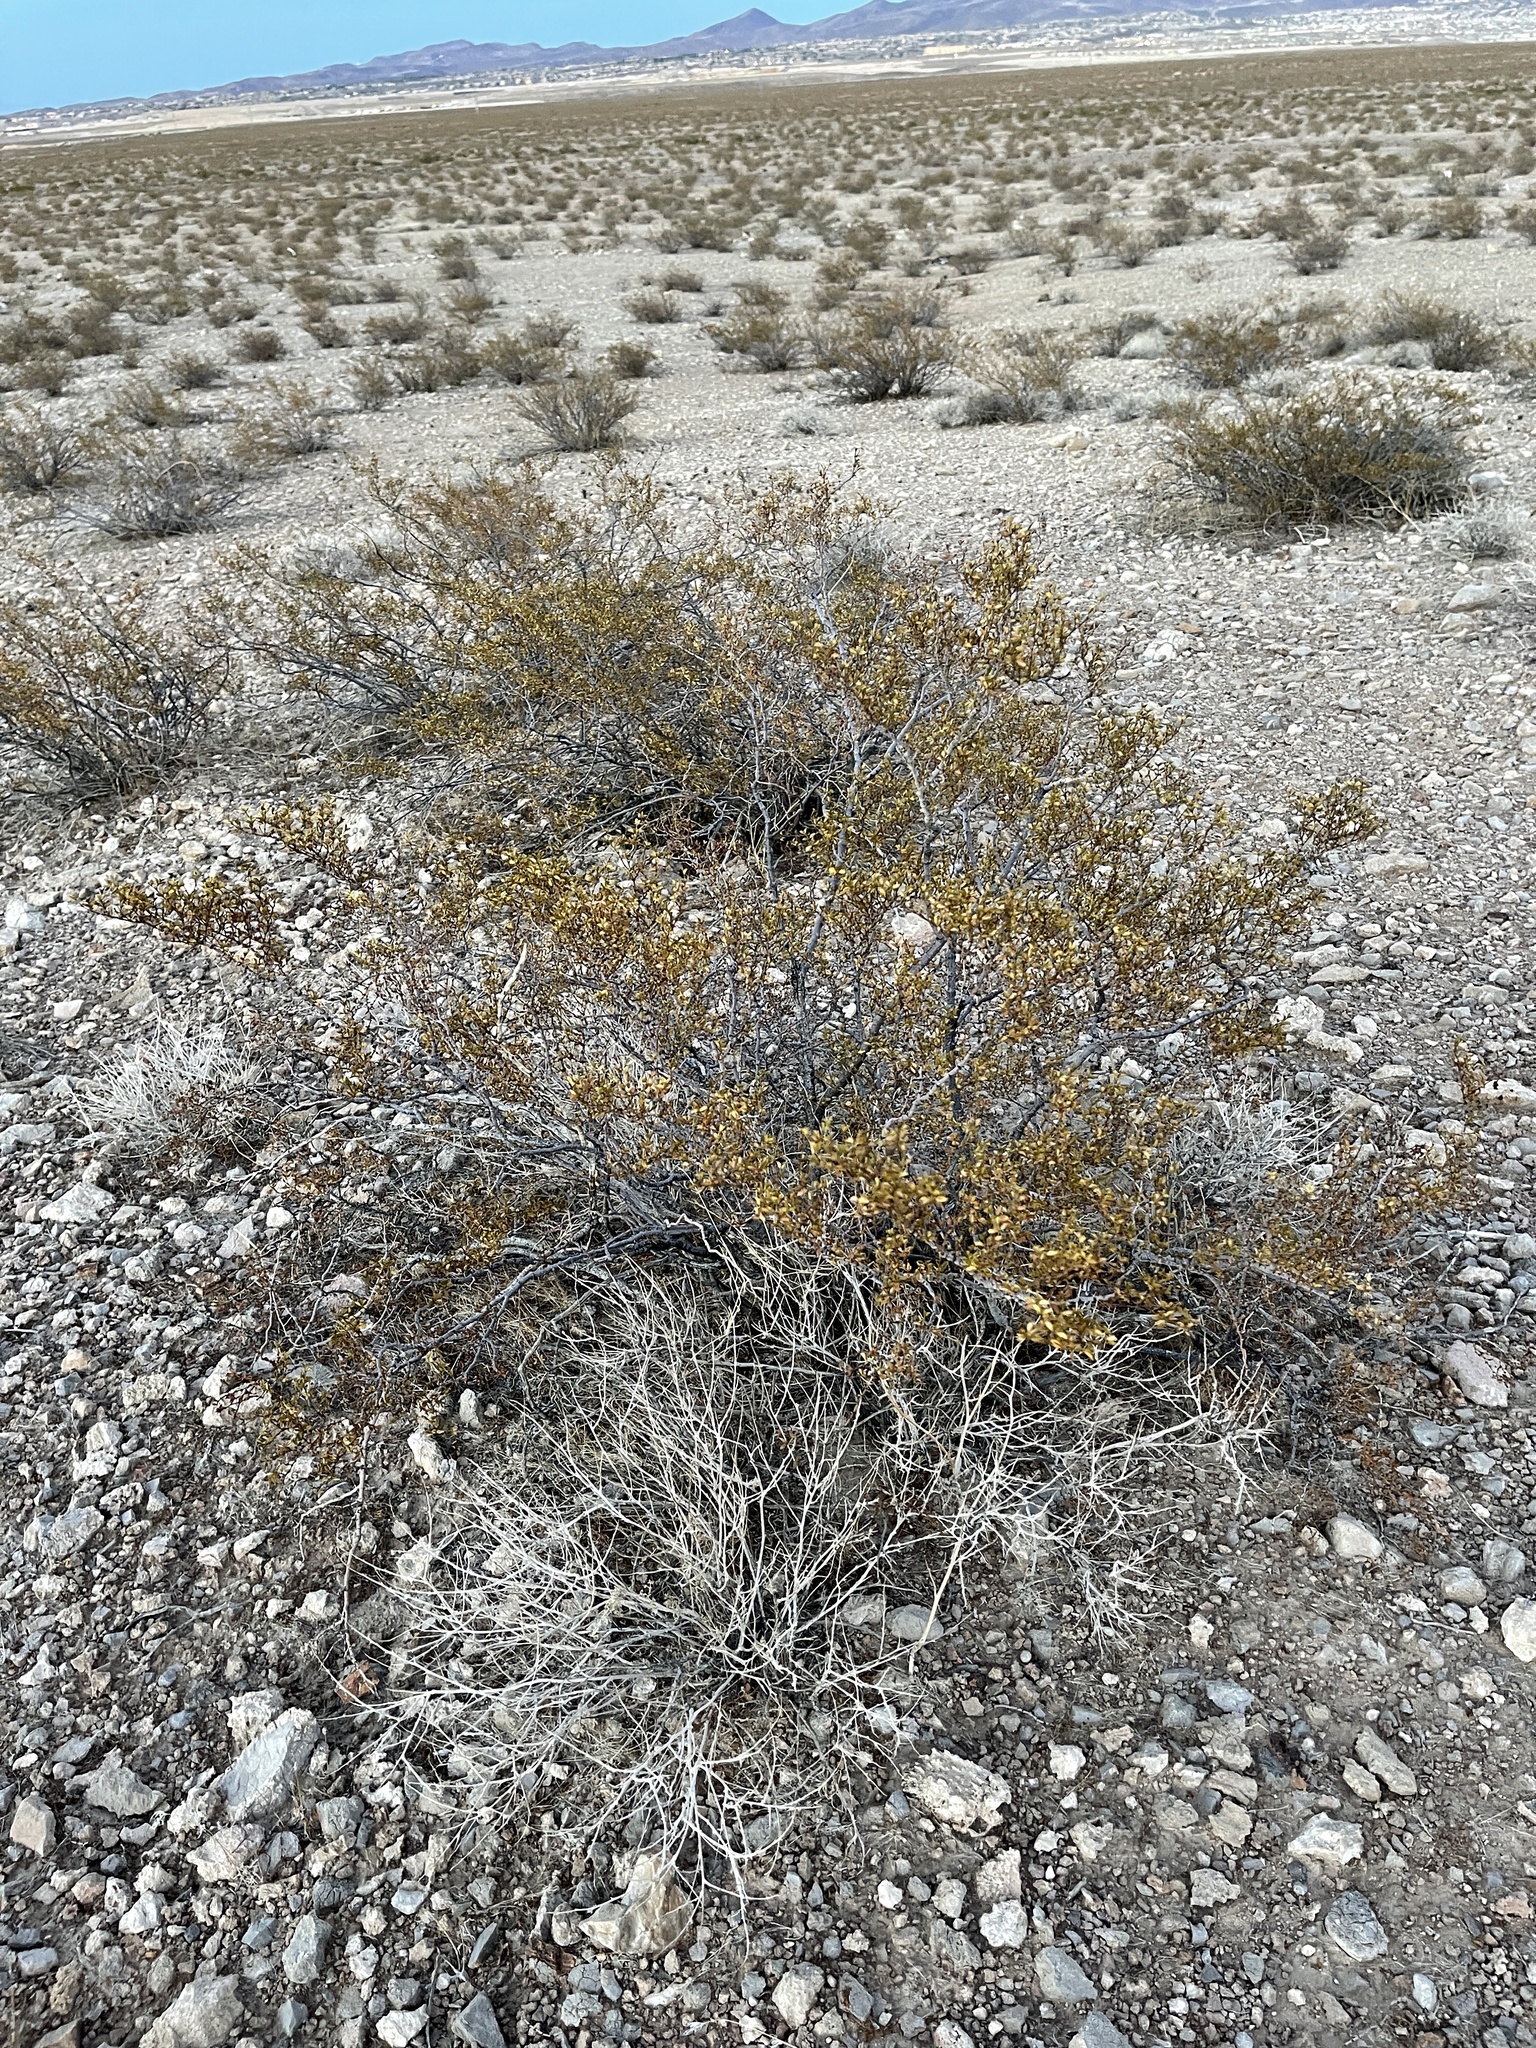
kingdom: Plantae
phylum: Tracheophyta
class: Magnoliopsida
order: Zygophyllales
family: Zygophyllaceae
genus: Larrea
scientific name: Larrea tridentata
